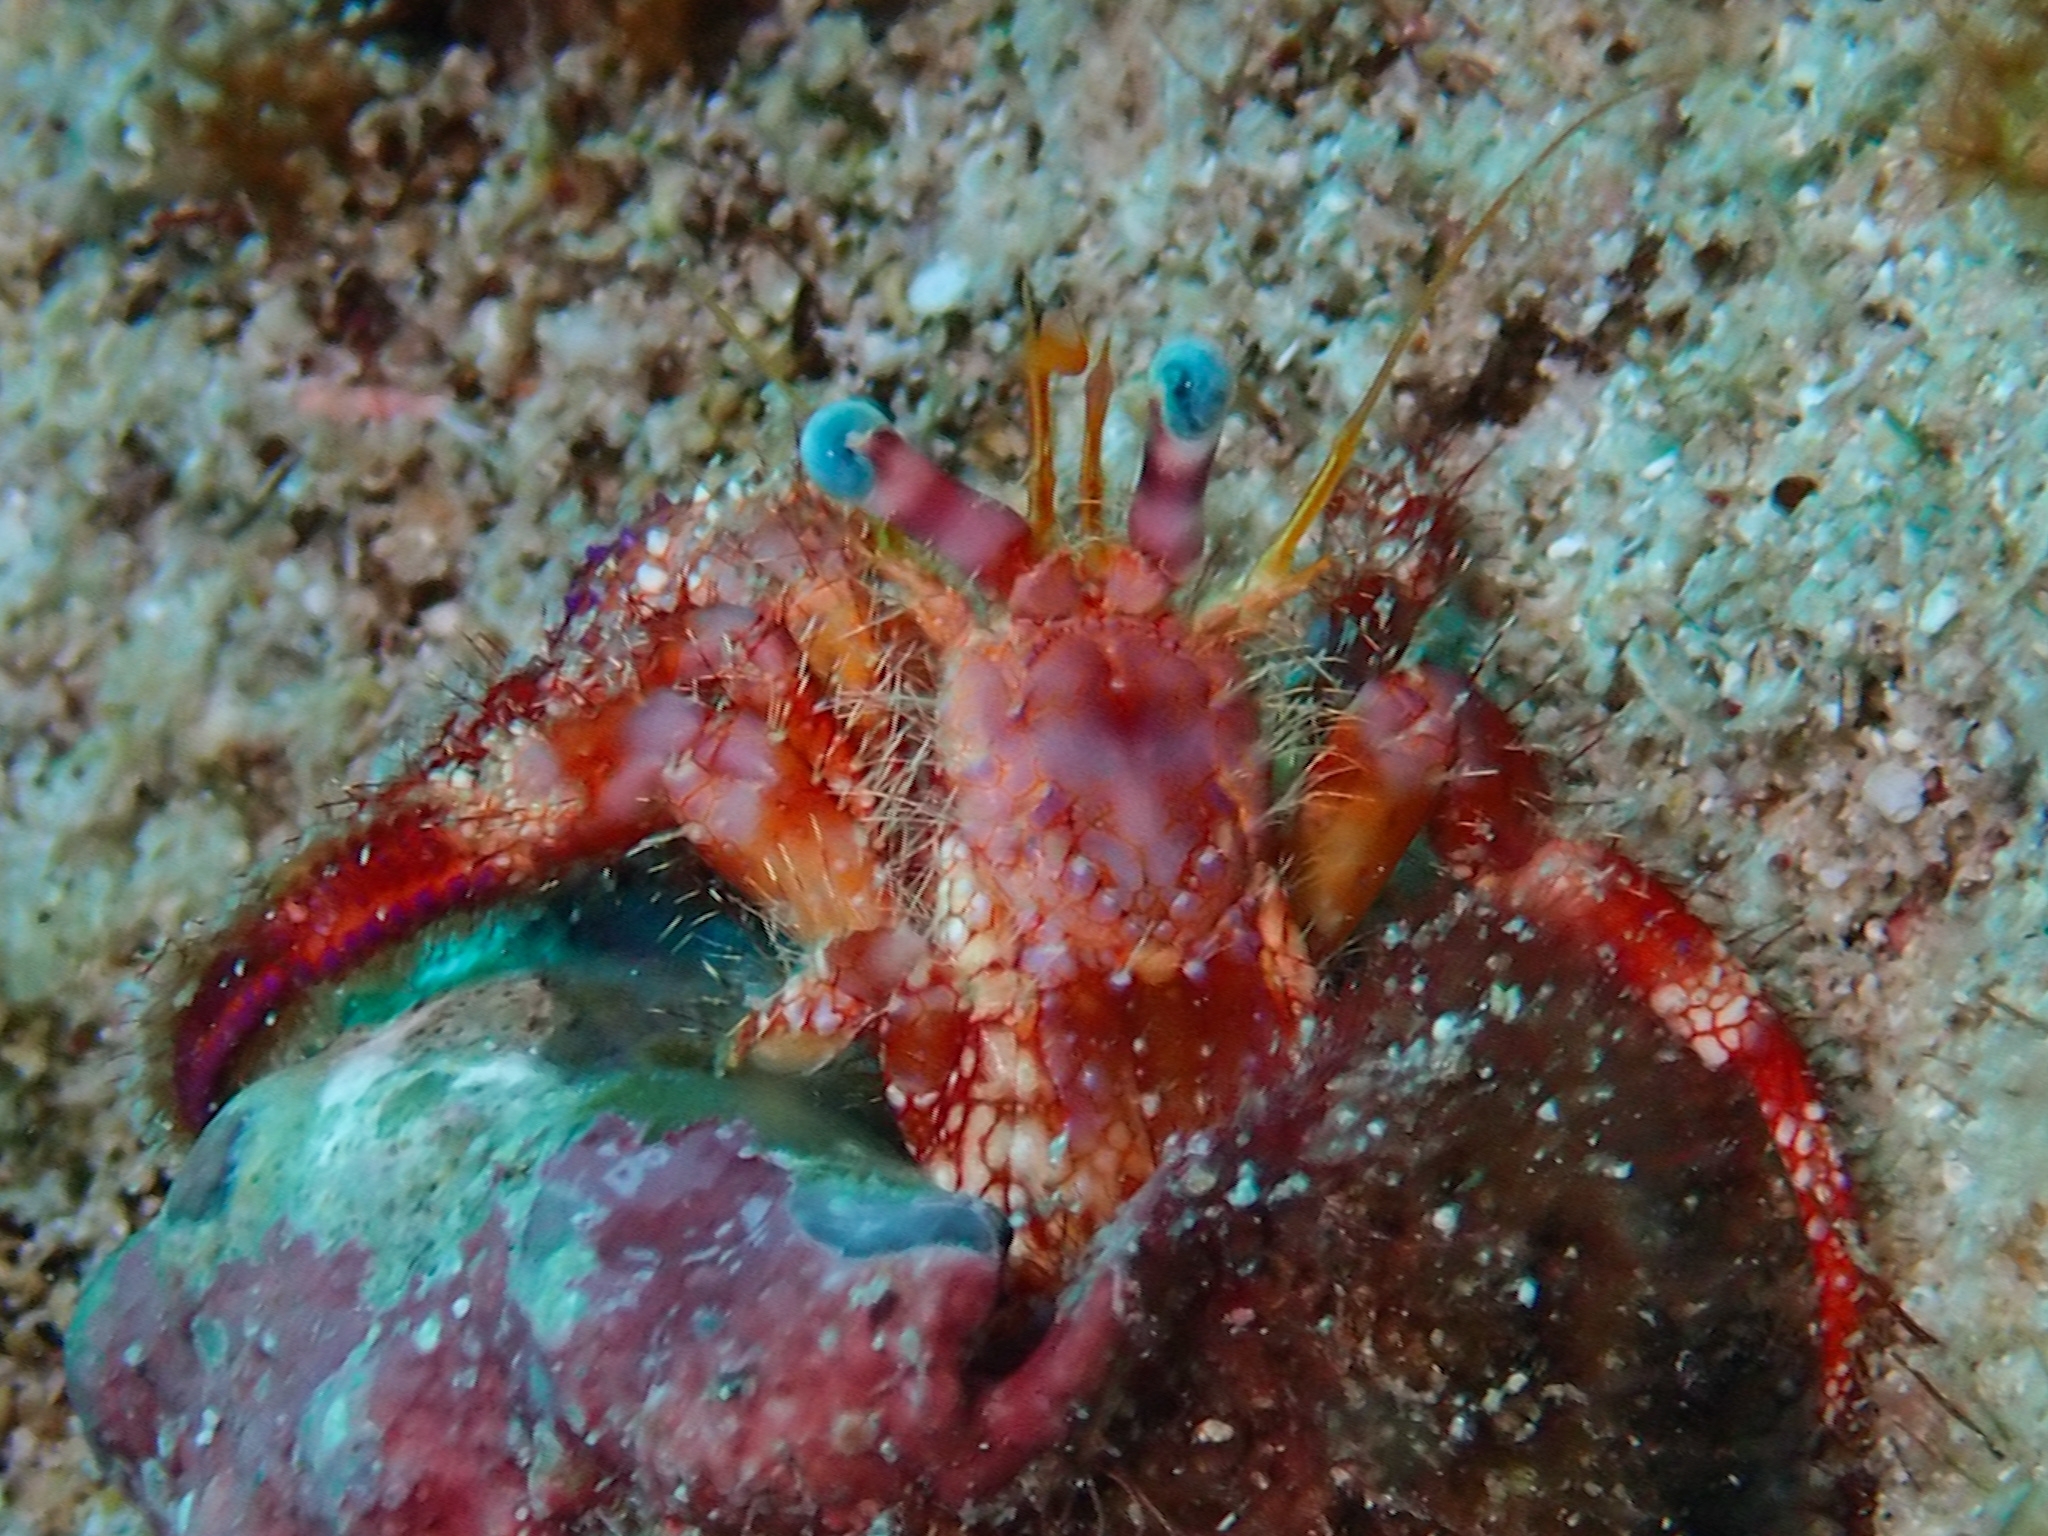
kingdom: Animalia
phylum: Arthropoda
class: Malacostraca
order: Decapoda
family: Diogenidae
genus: Dardanus
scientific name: Dardanus venosus
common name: Stareye hermit
